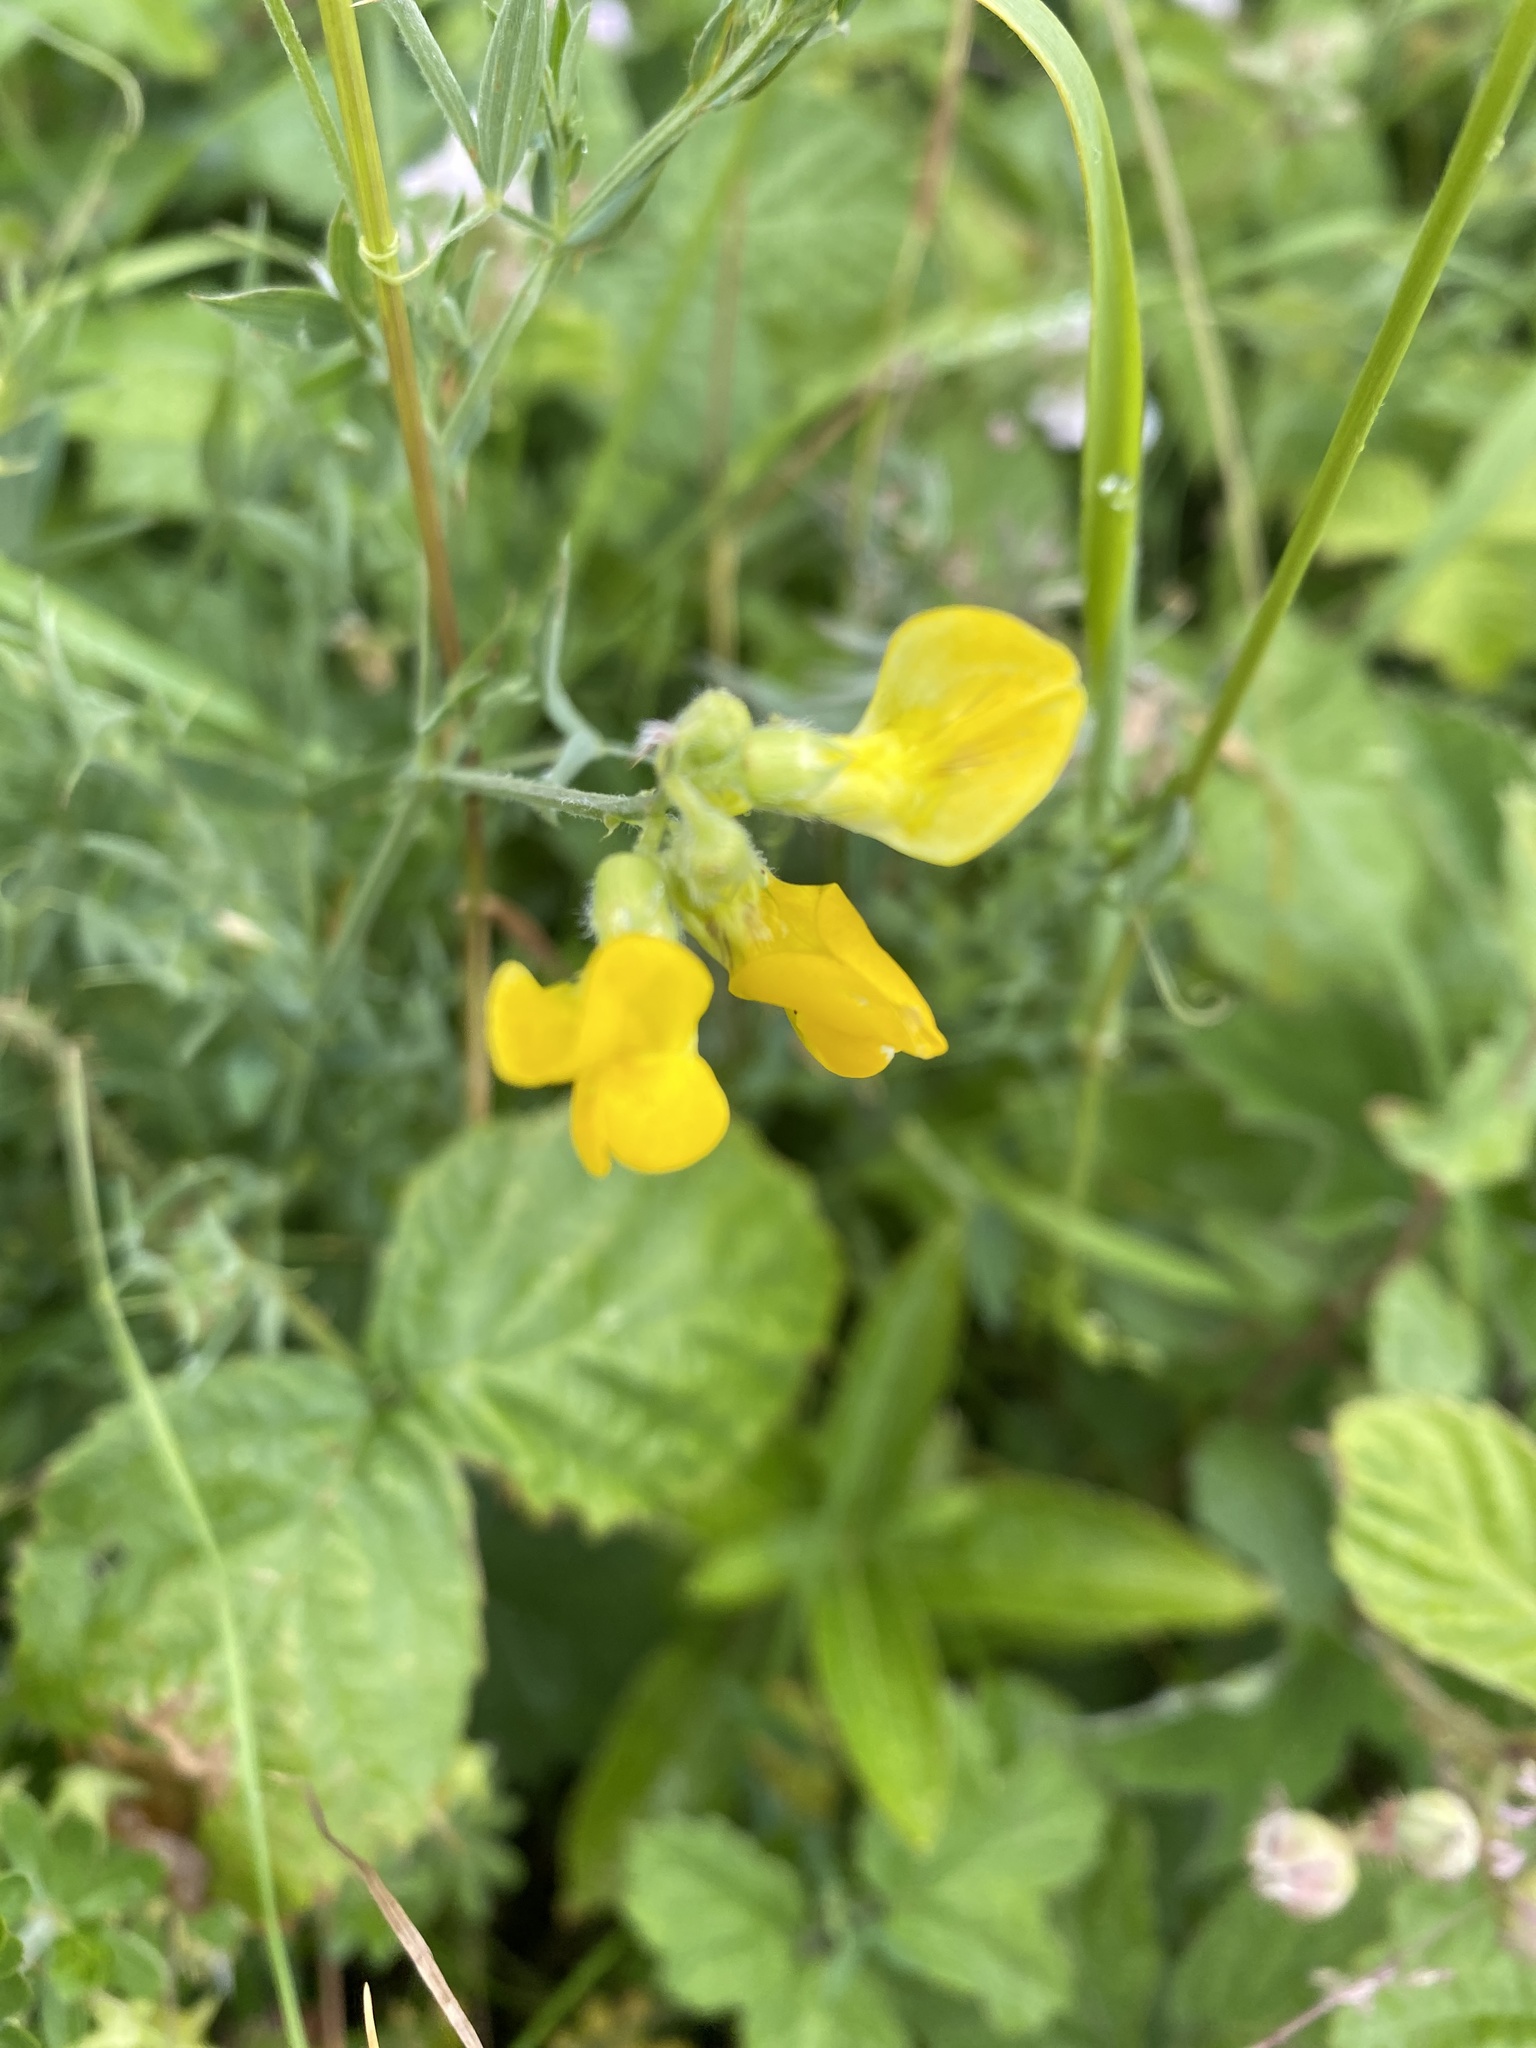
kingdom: Plantae
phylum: Tracheophyta
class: Magnoliopsida
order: Fabales
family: Fabaceae
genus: Lathyrus
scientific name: Lathyrus pratensis
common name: Meadow vetchling
